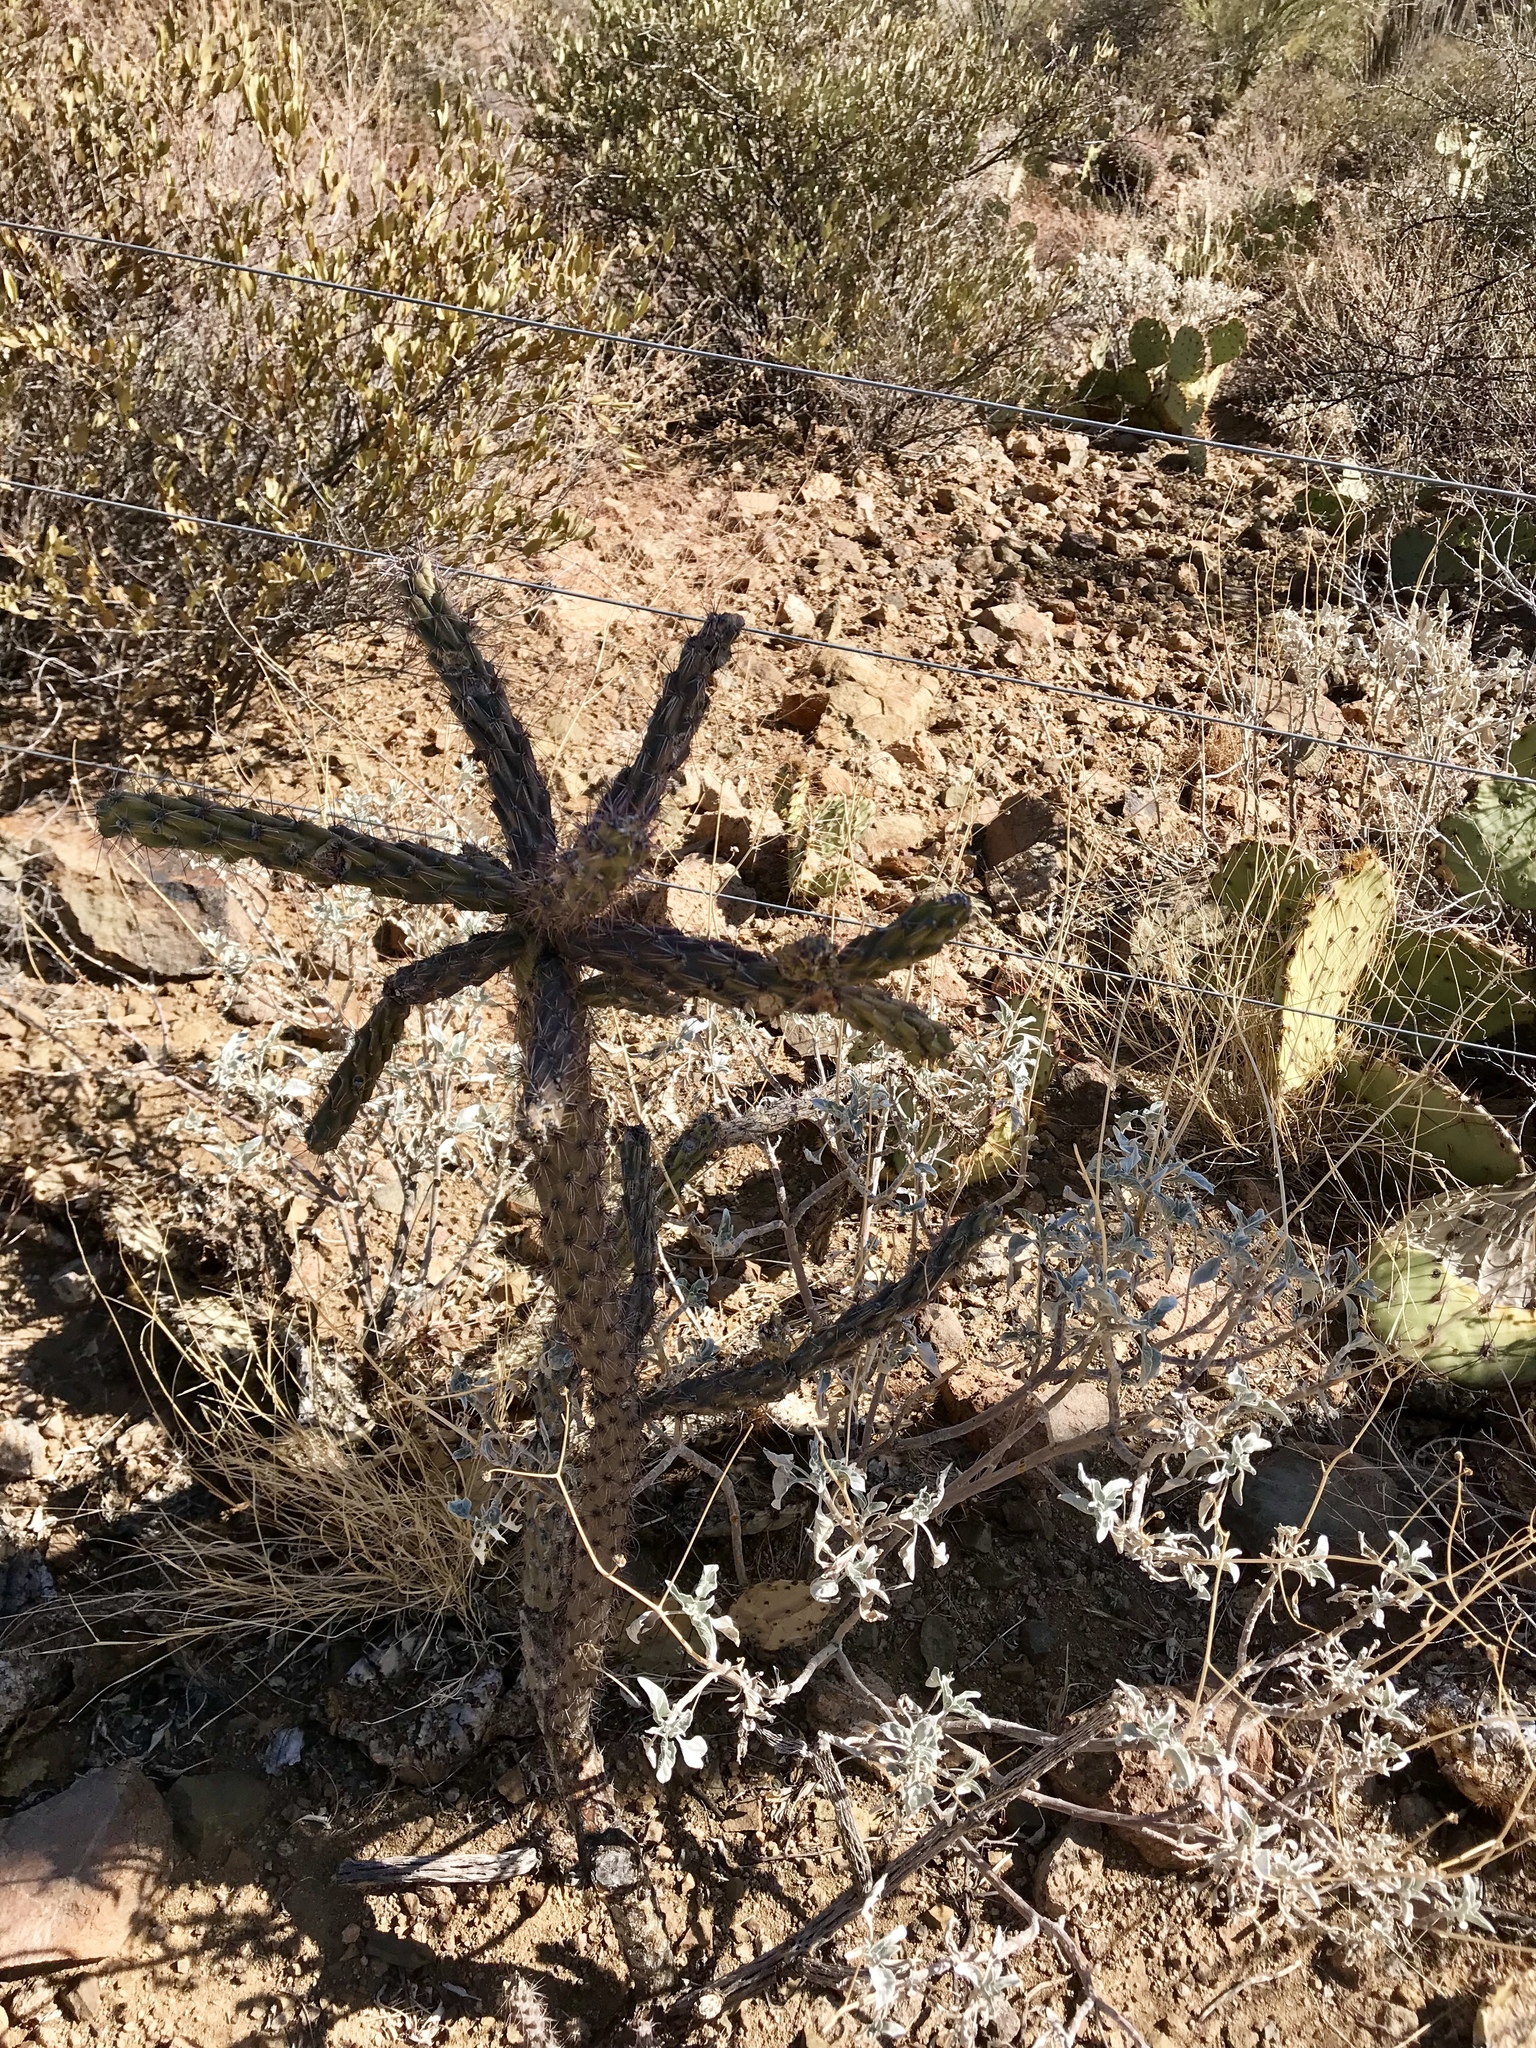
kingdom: Plantae
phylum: Tracheophyta
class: Magnoliopsida
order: Caryophyllales
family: Cactaceae
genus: Cylindropuntia
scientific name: Cylindropuntia thurberi
